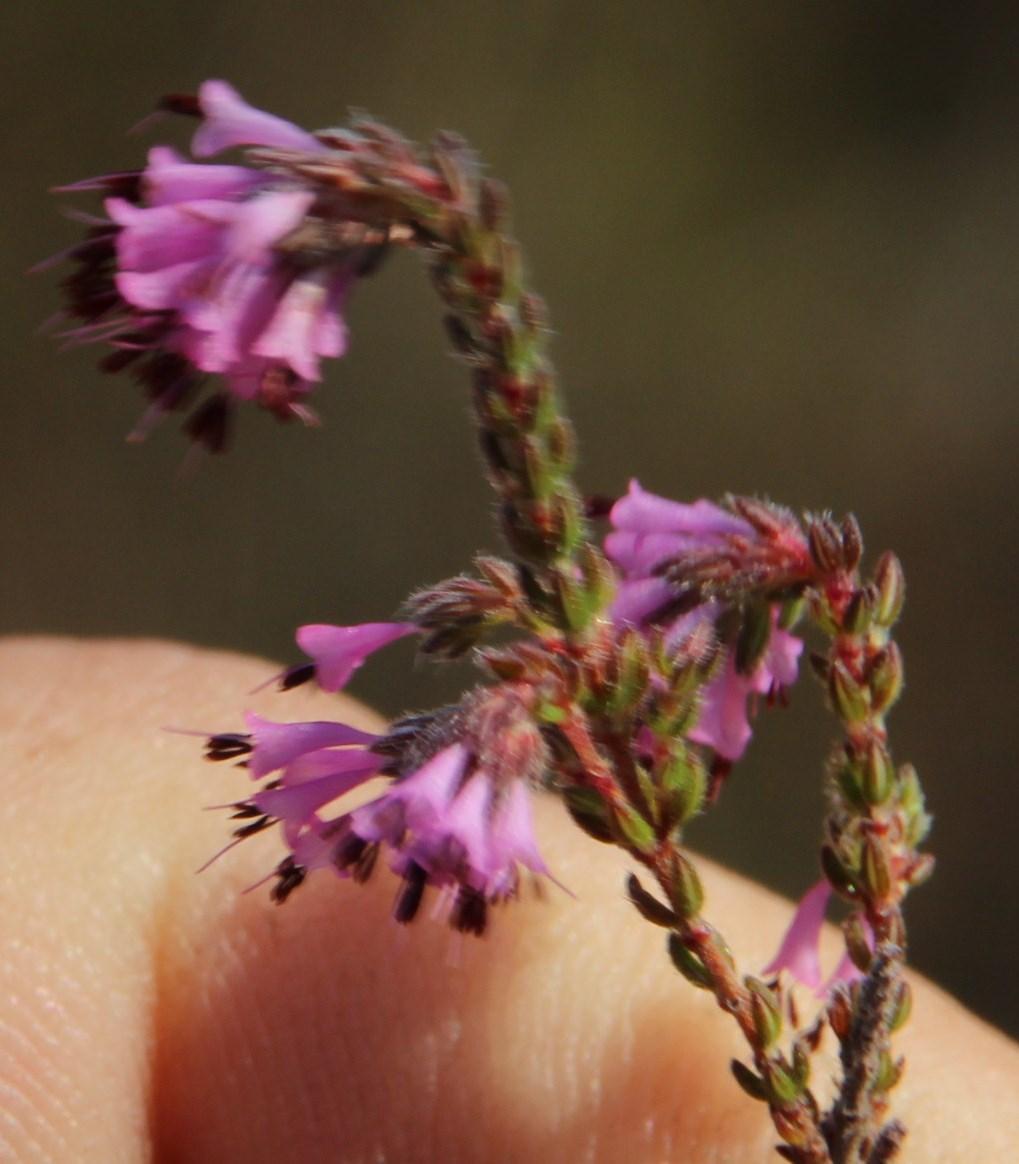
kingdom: Plantae
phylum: Tracheophyta
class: Magnoliopsida
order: Ericales
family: Ericaceae
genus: Erica
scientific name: Erica globiceps
